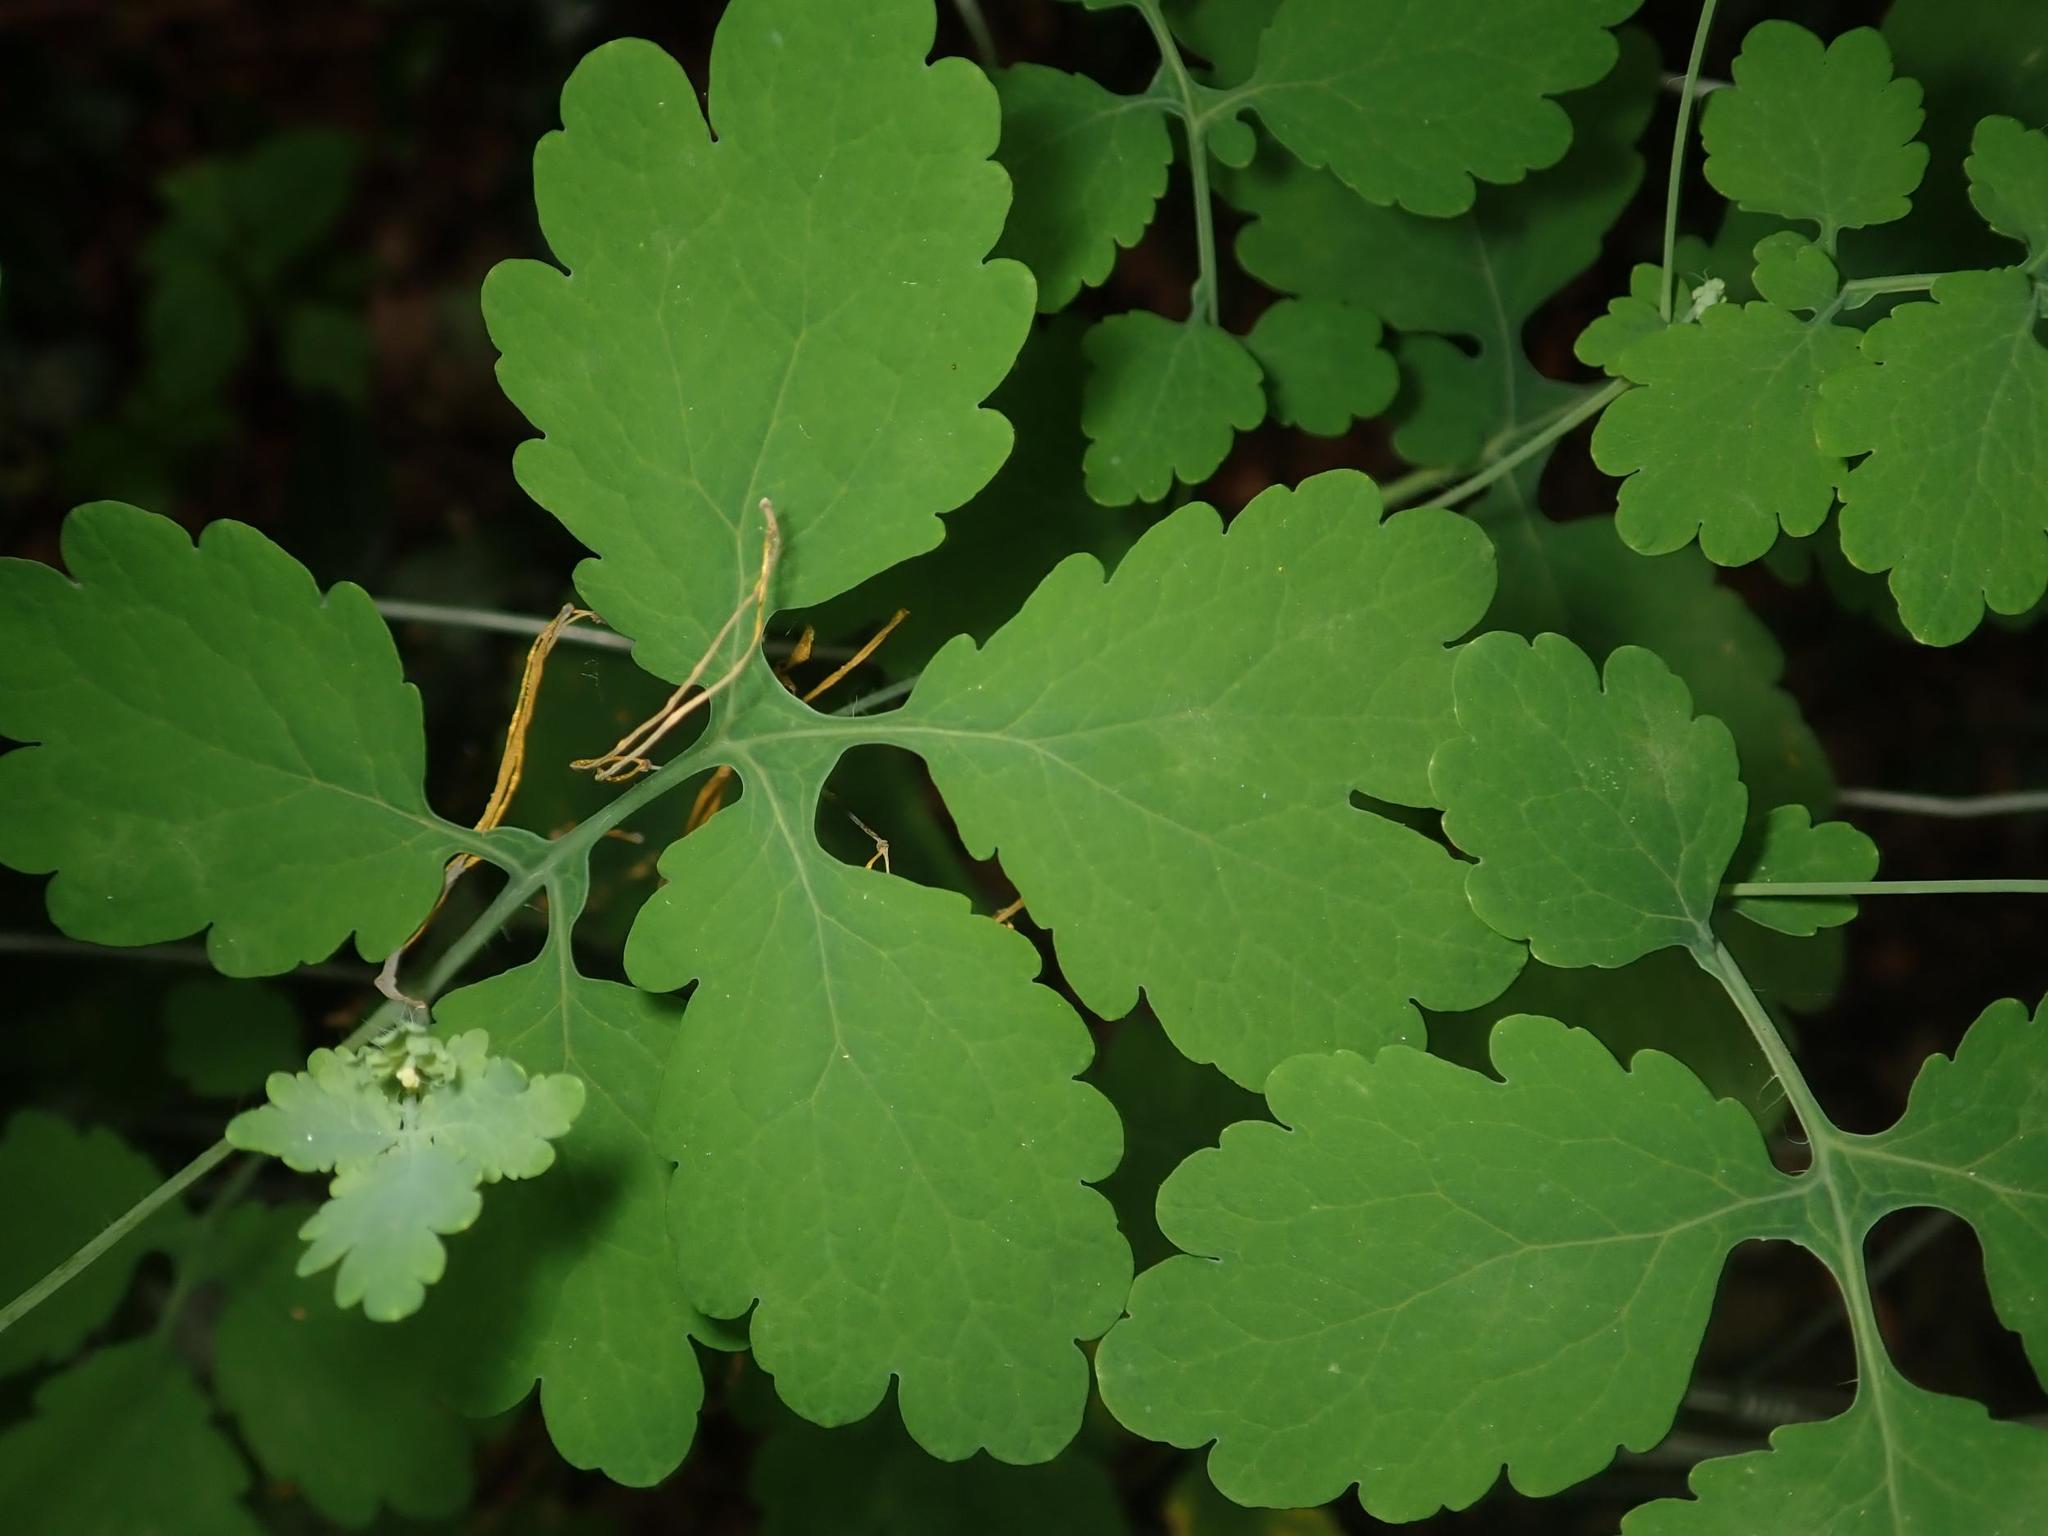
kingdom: Plantae
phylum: Tracheophyta
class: Magnoliopsida
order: Ranunculales
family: Papaveraceae
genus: Chelidonium
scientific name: Chelidonium majus
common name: Greater celandine
